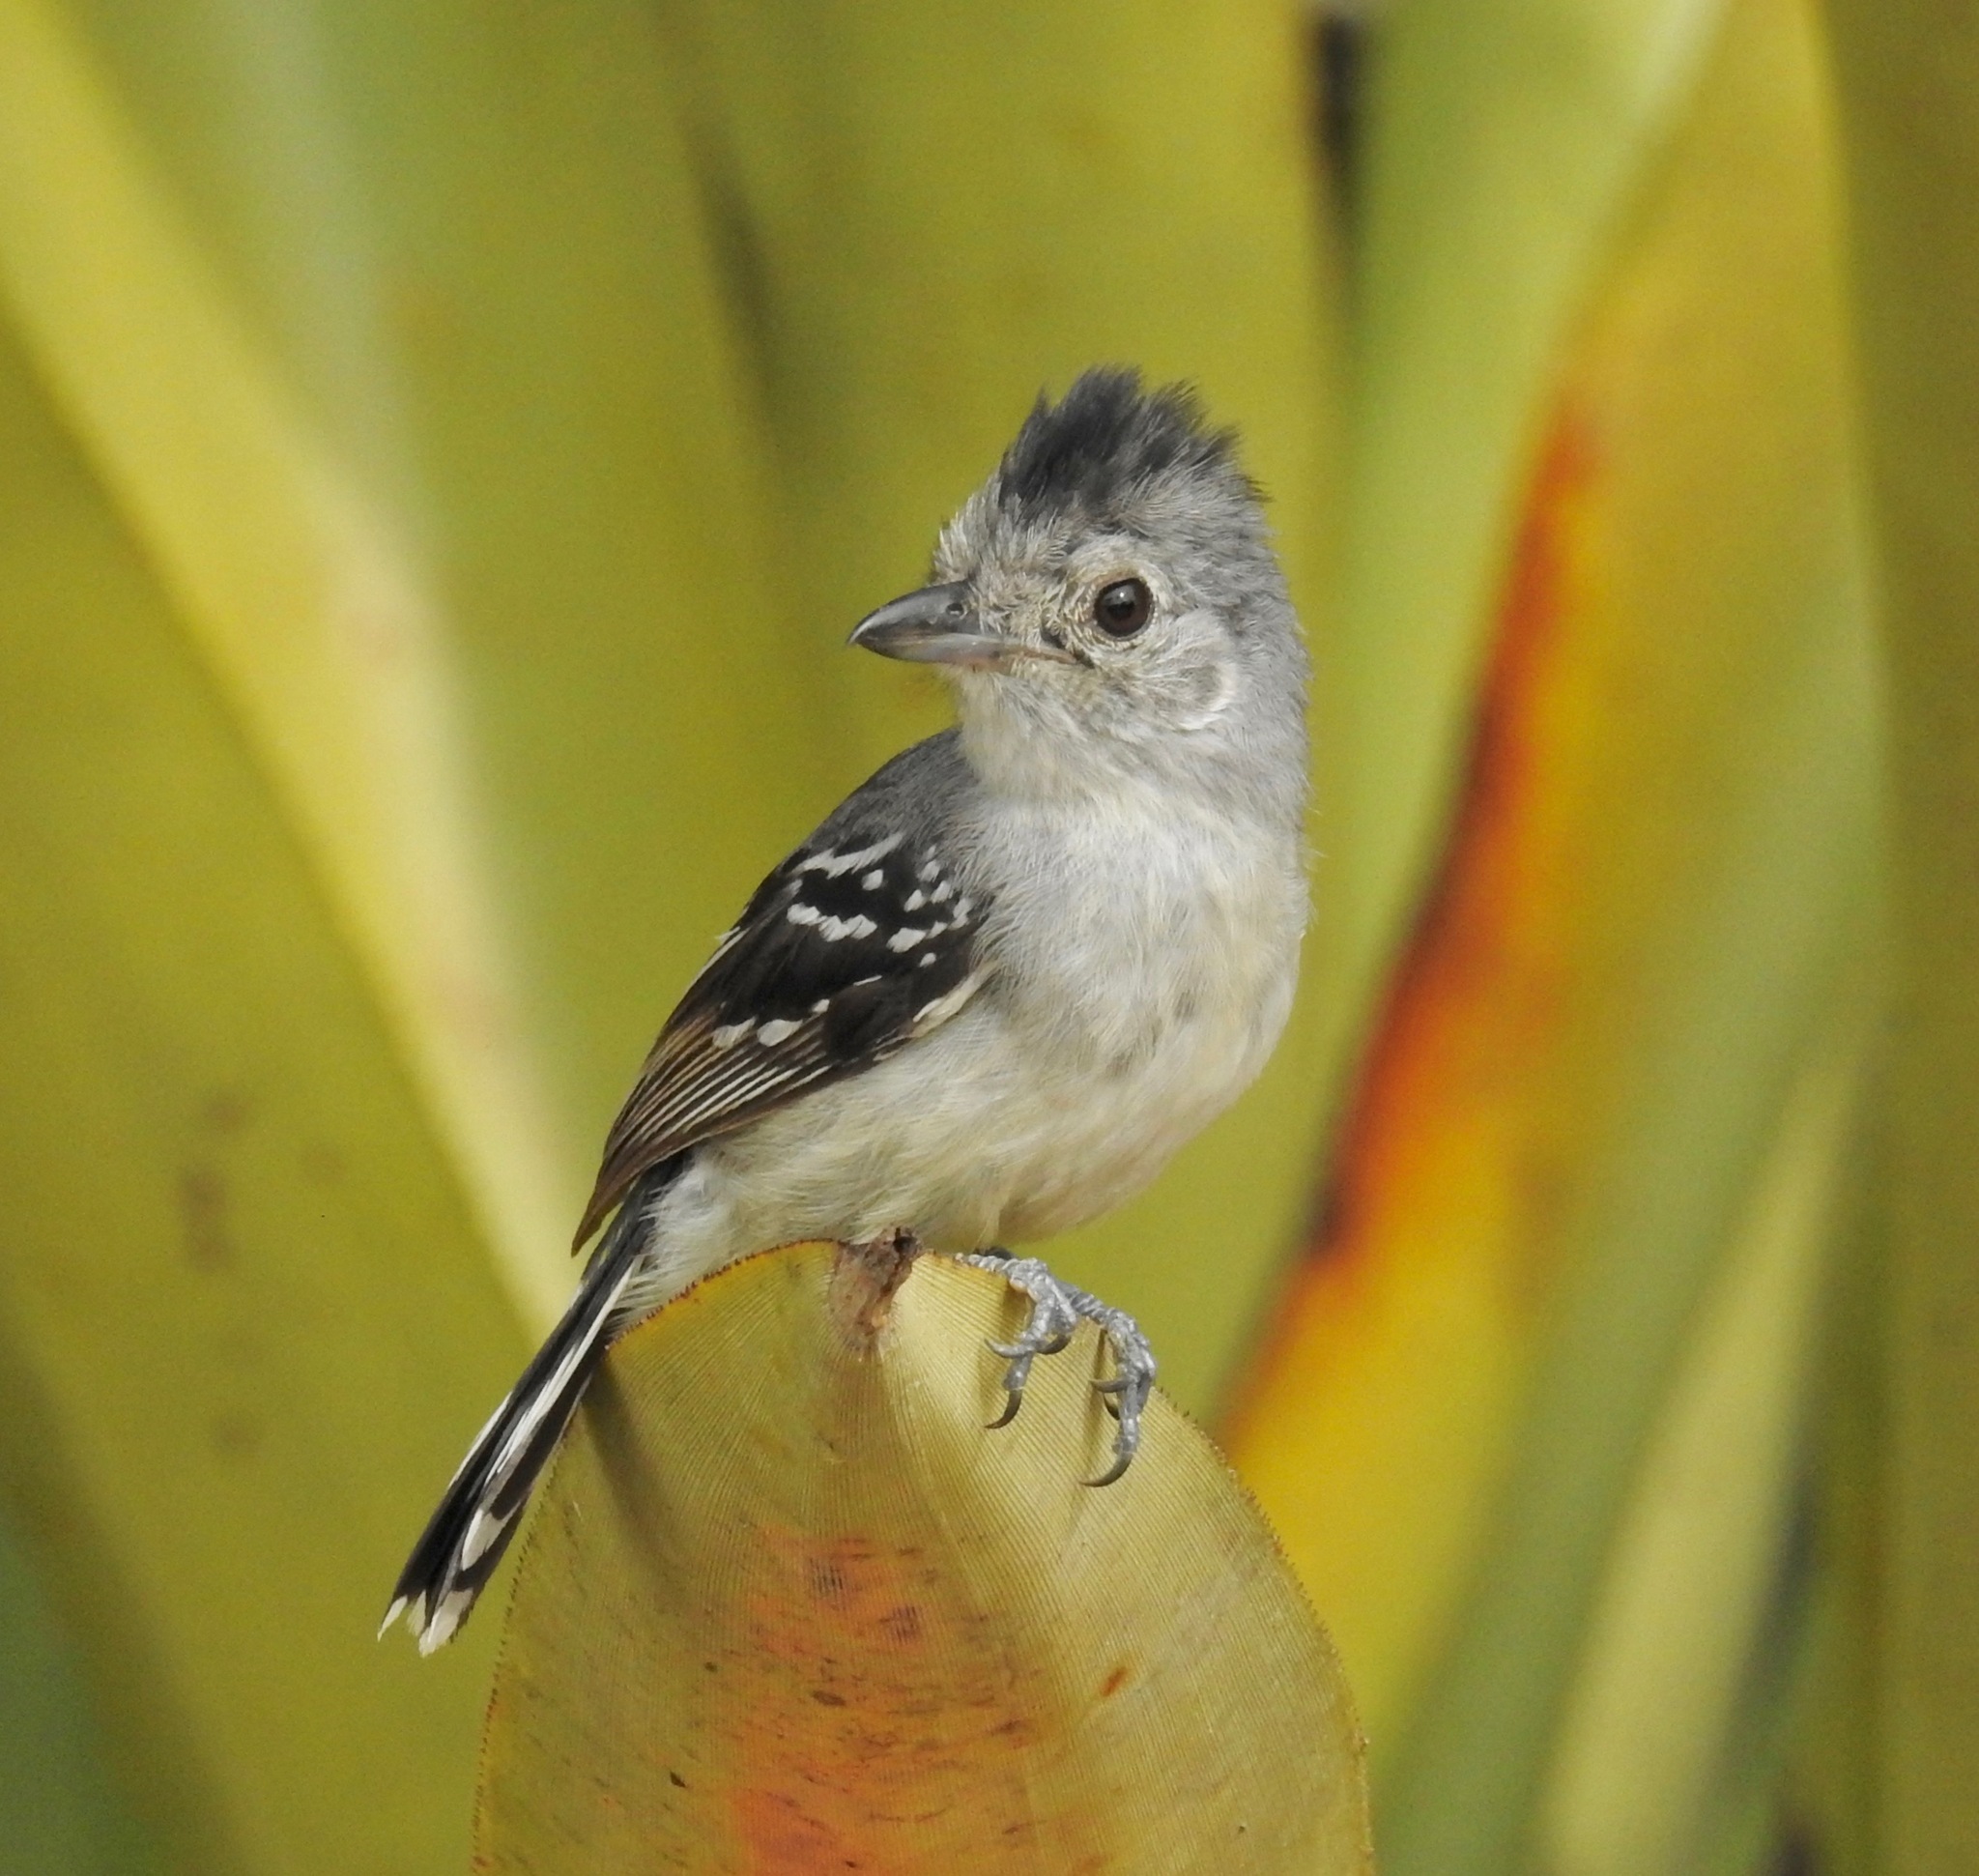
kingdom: Animalia
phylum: Chordata
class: Aves
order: Passeriformes
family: Thamnophilidae
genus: Thamnophilus
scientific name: Thamnophilus pelzelni
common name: Planalto slaty-antshrike
